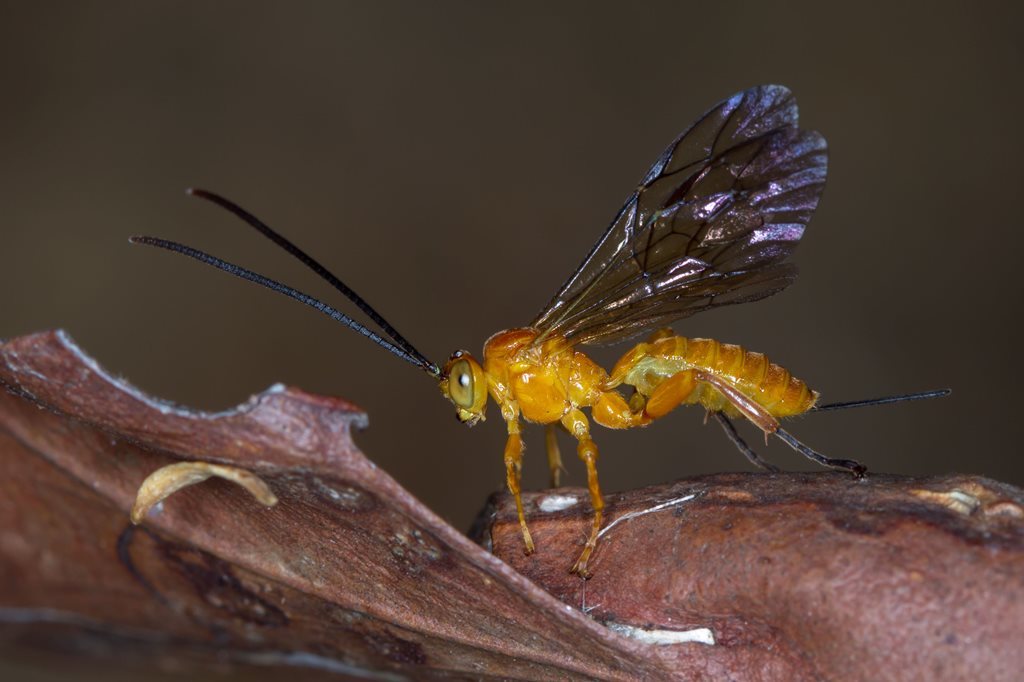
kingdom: Animalia
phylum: Arthropoda
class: Insecta
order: Hymenoptera
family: Ichneumonidae
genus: Theronia
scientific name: Theronia steindachneri
